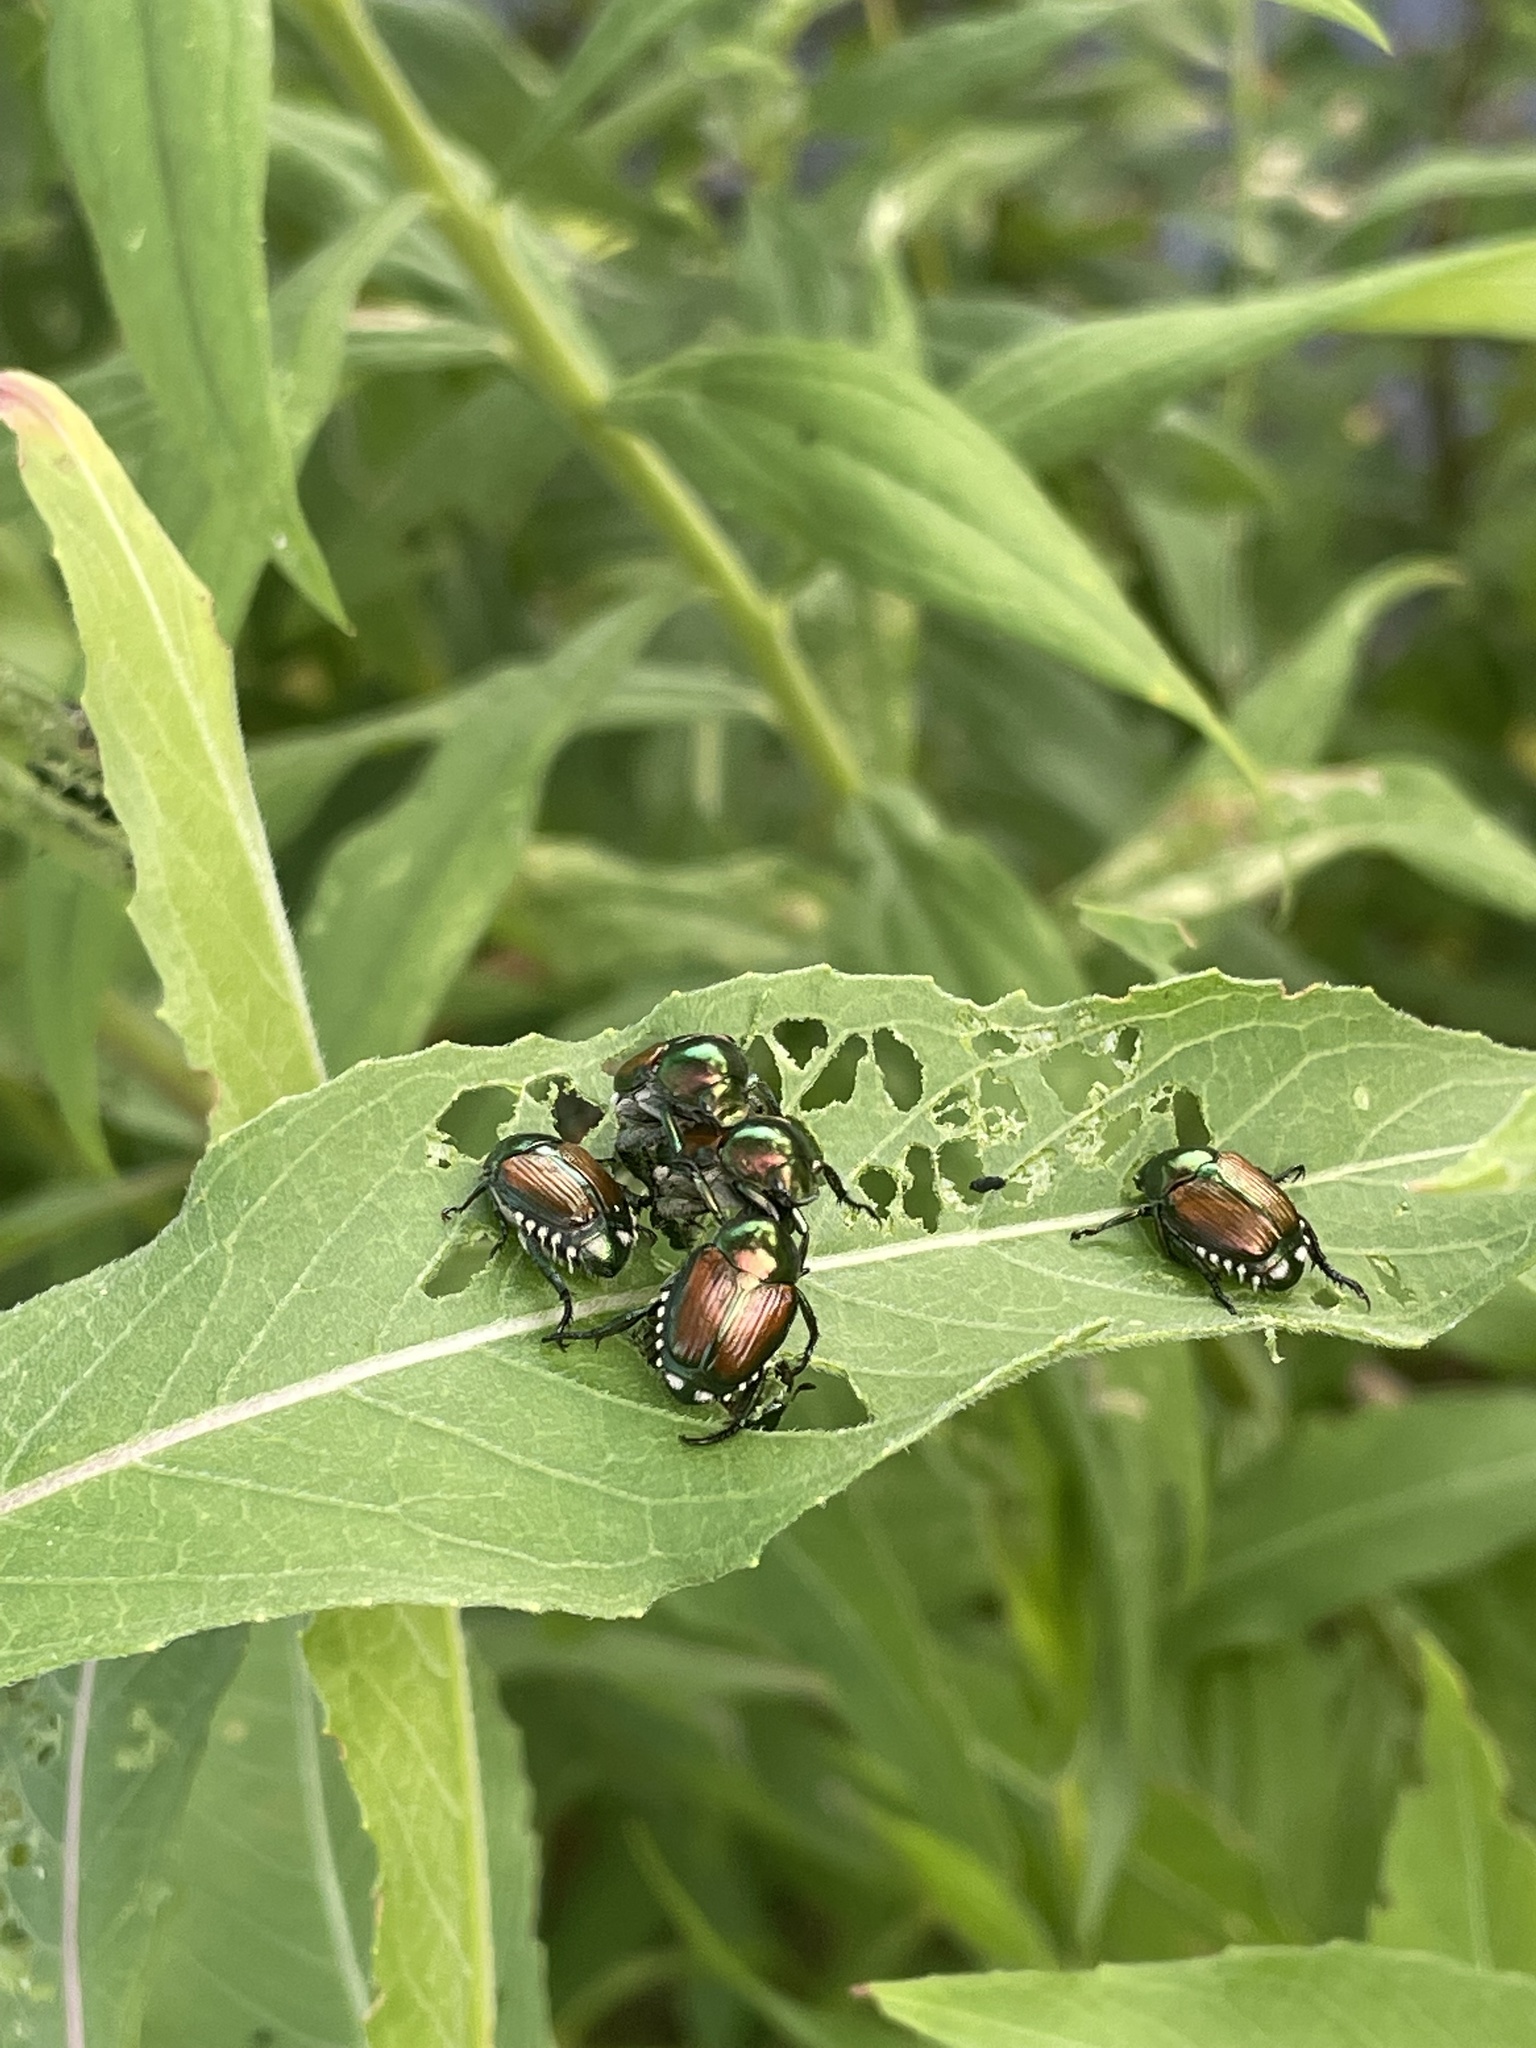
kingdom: Animalia
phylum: Arthropoda
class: Insecta
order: Coleoptera
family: Scarabaeidae
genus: Popillia
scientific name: Popillia japonica
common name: Japanese beetle
